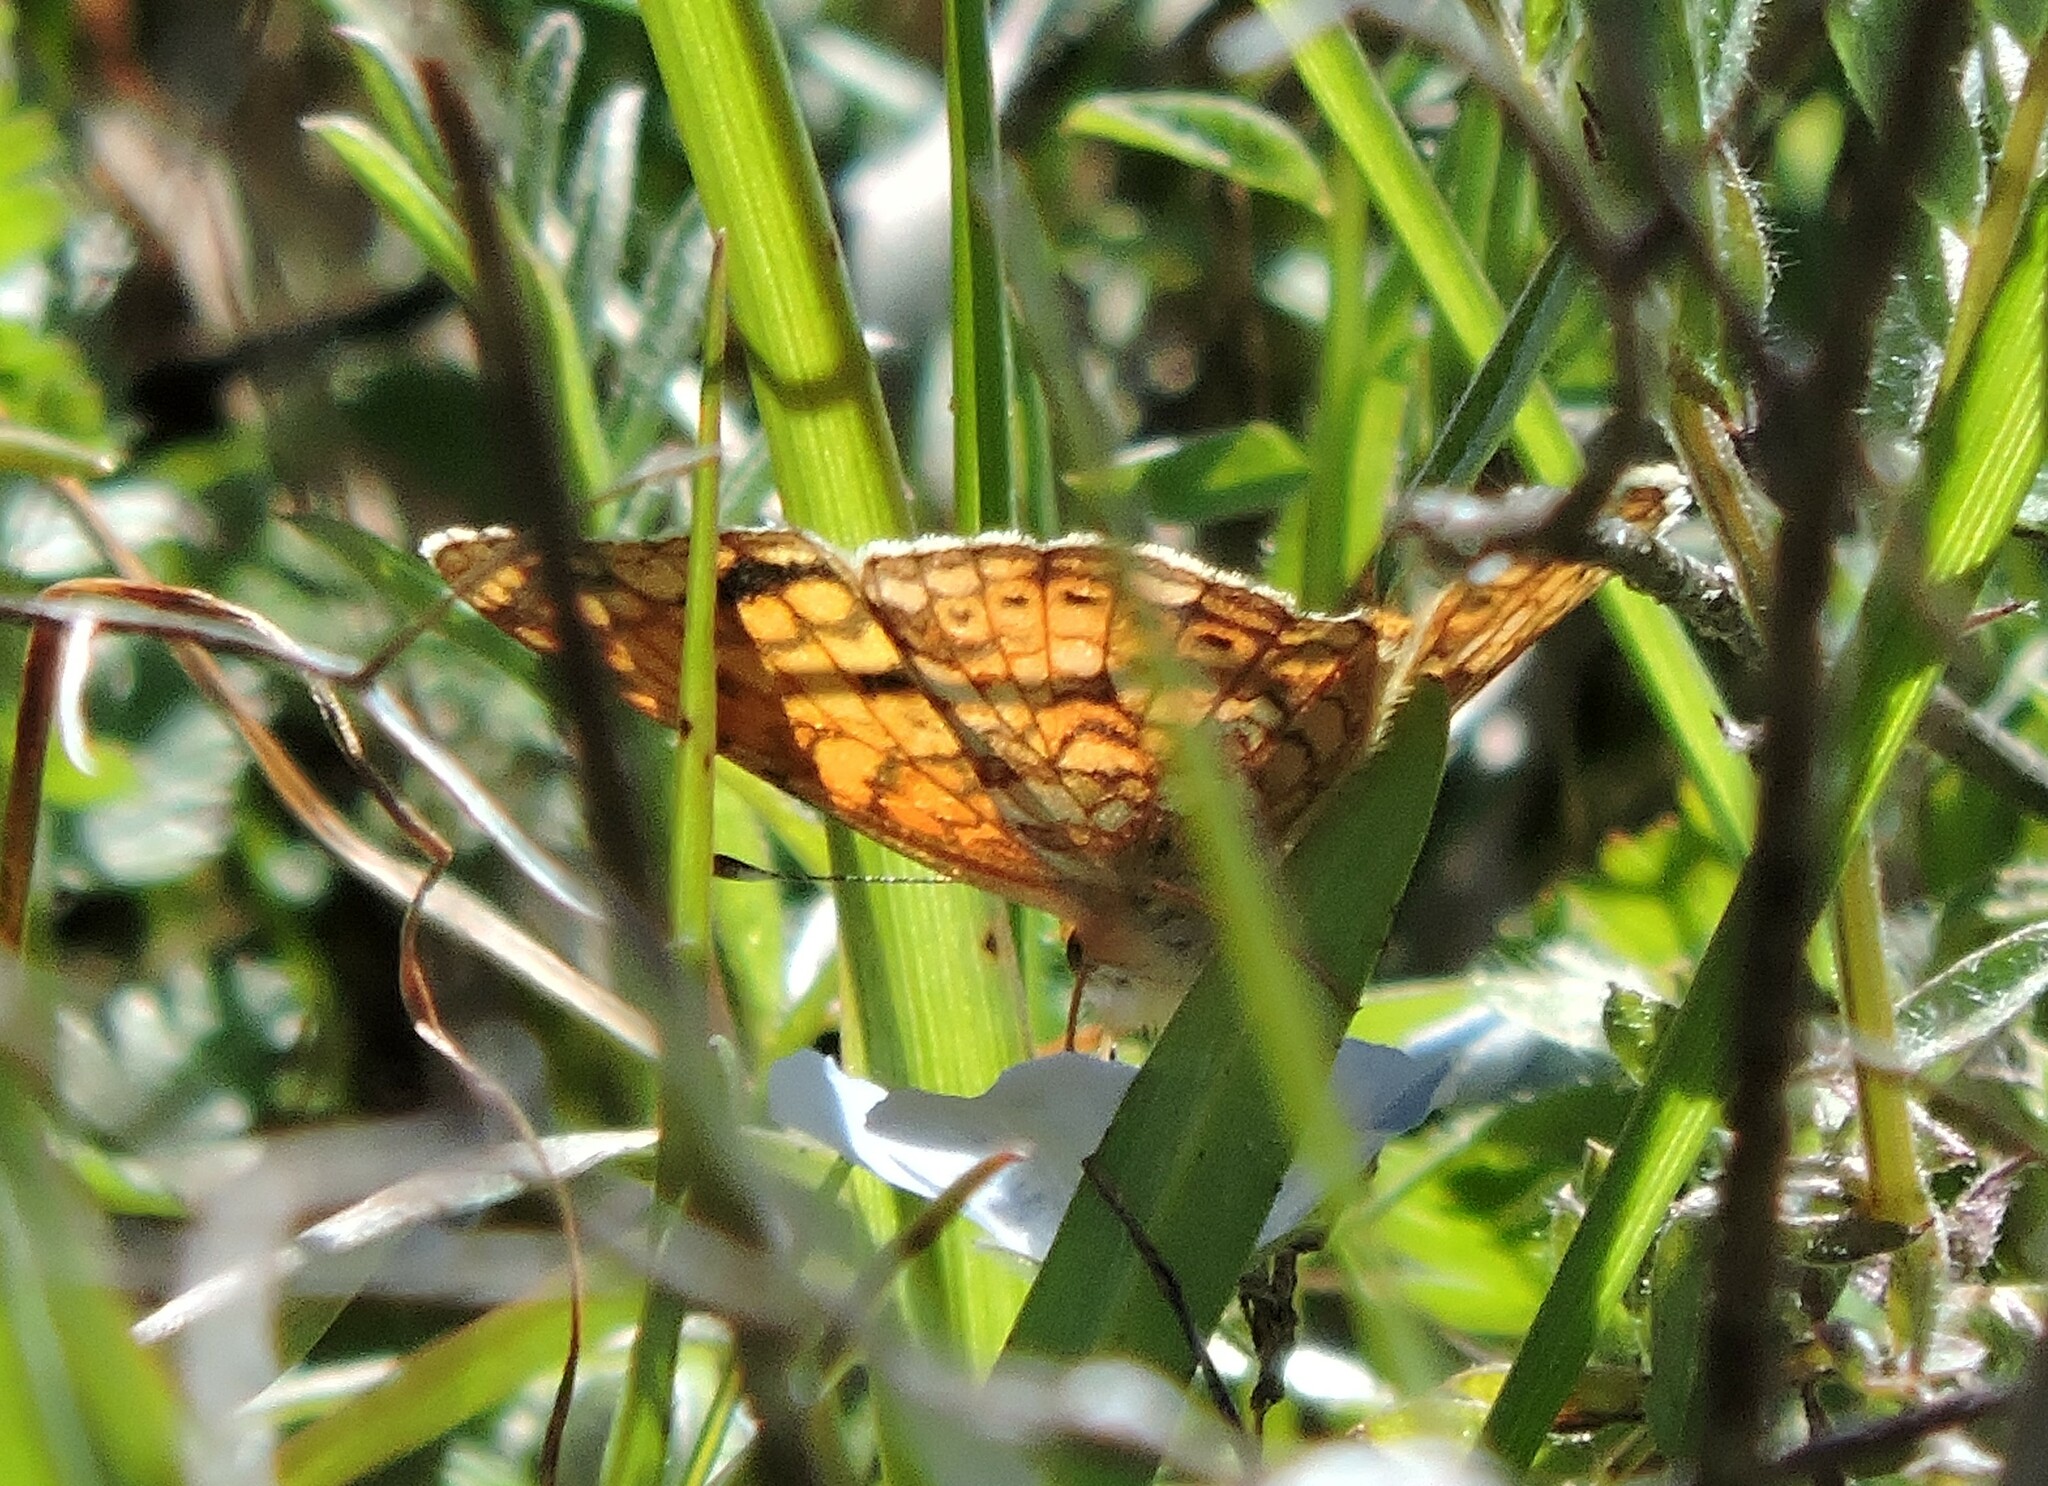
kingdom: Animalia
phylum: Arthropoda
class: Insecta
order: Lepidoptera
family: Nymphalidae
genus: Eresia
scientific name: Eresia aveyrona
